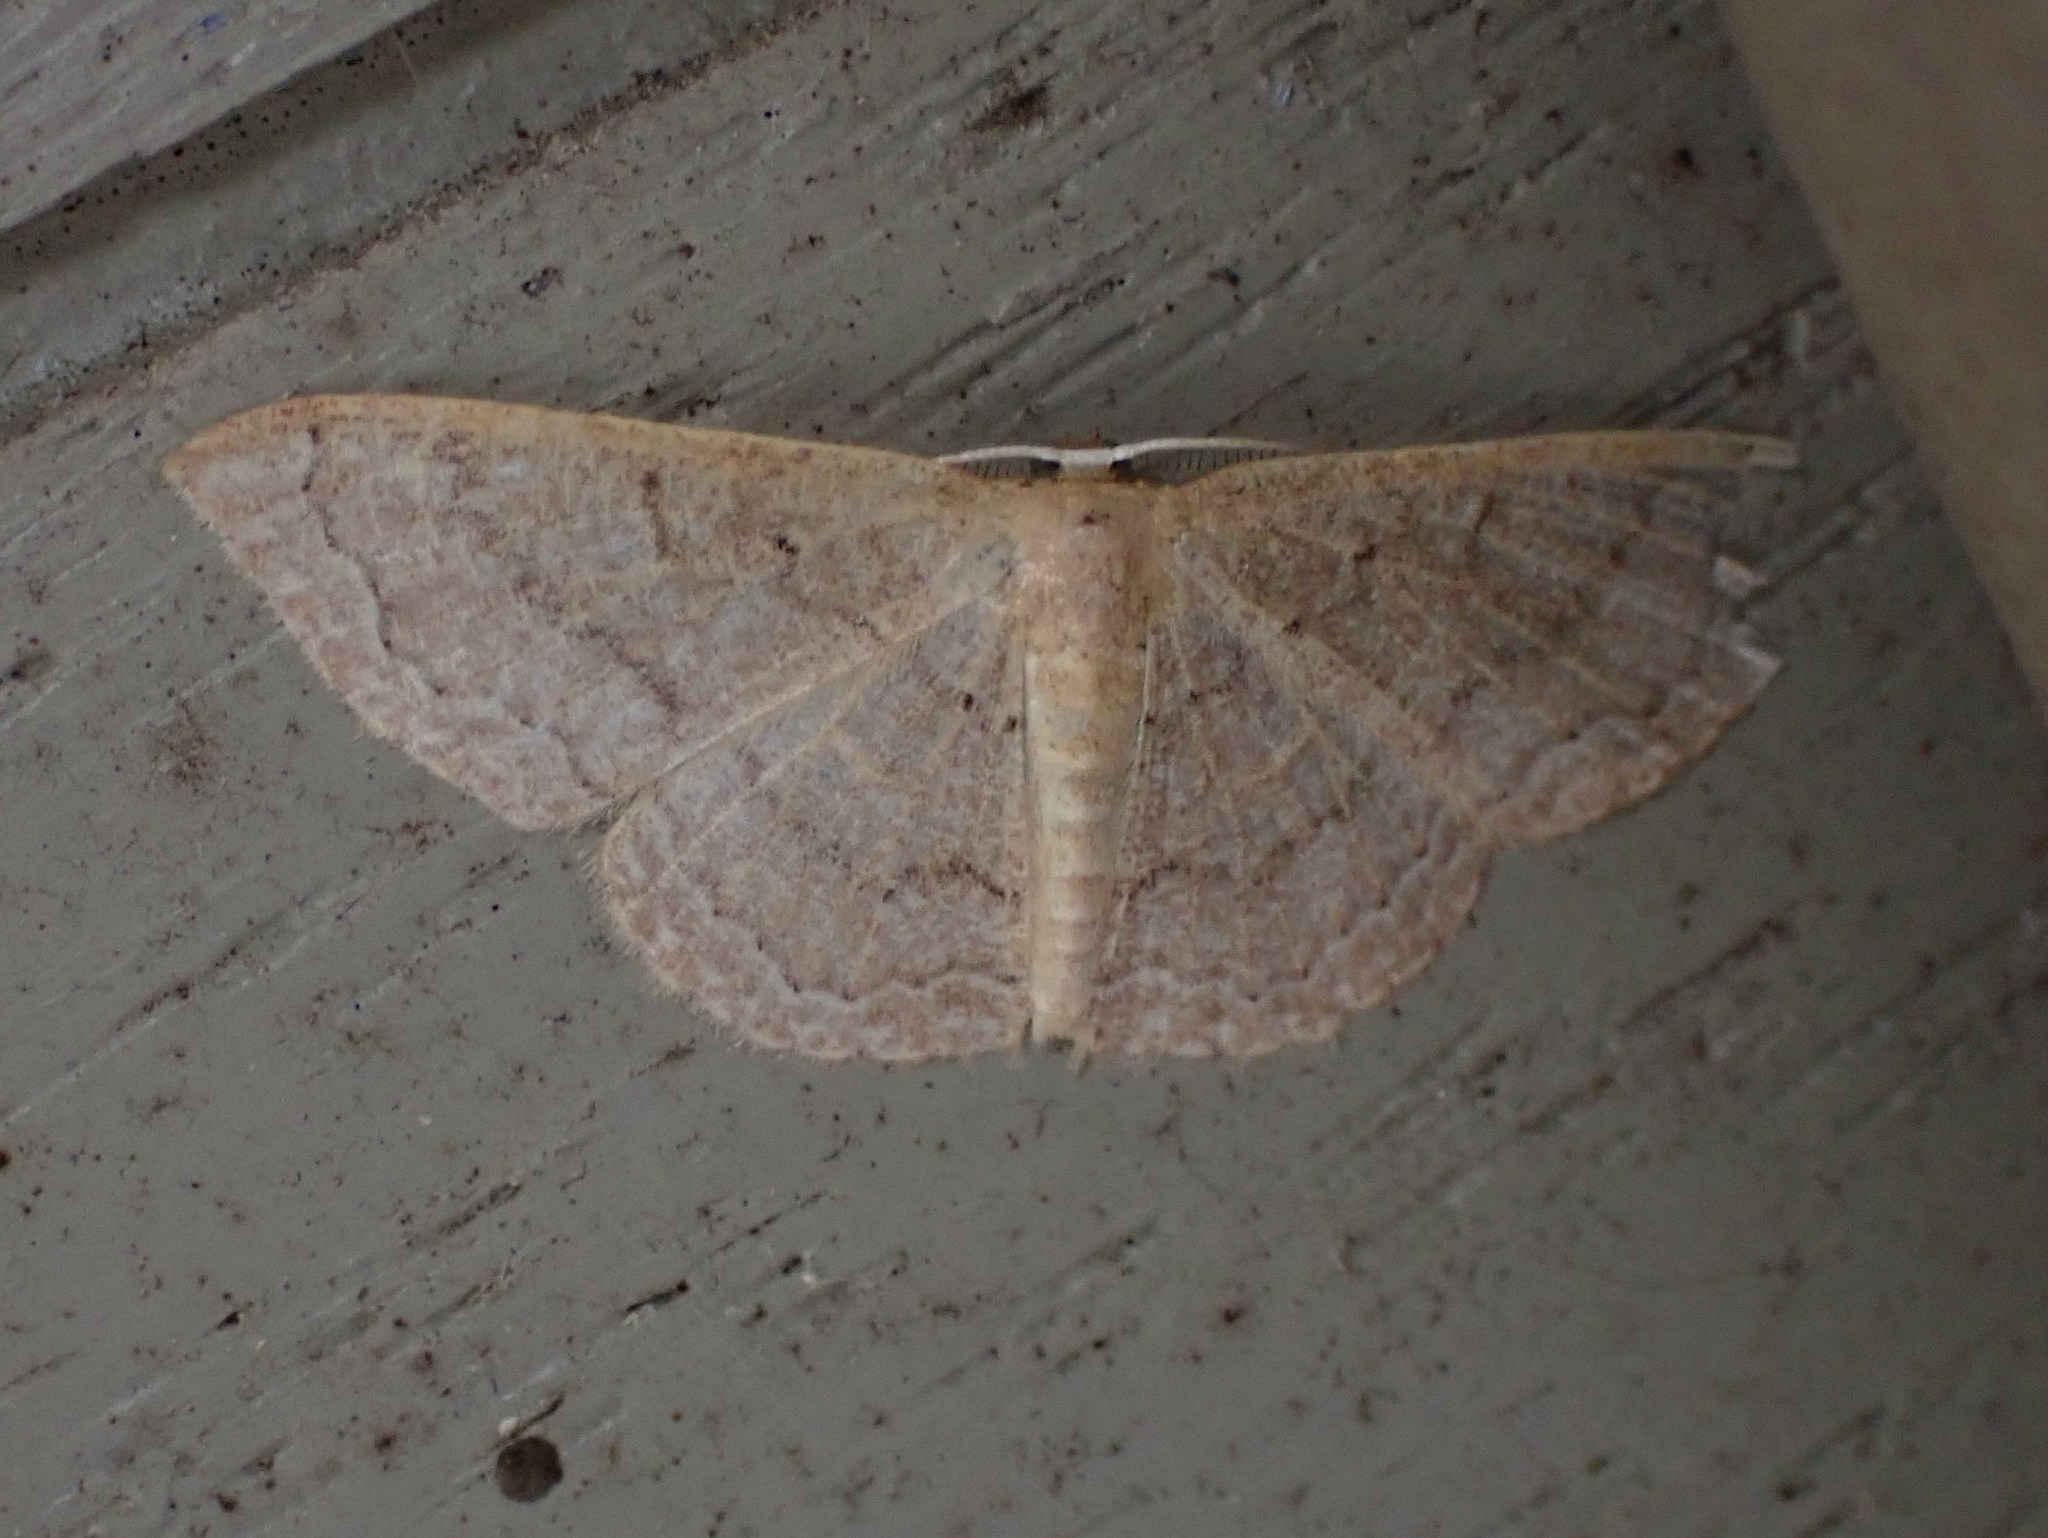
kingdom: Animalia
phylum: Arthropoda
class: Insecta
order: Lepidoptera
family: Geometridae
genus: Pleuroprucha
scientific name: Pleuroprucha insulsaria
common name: Common tan wave
